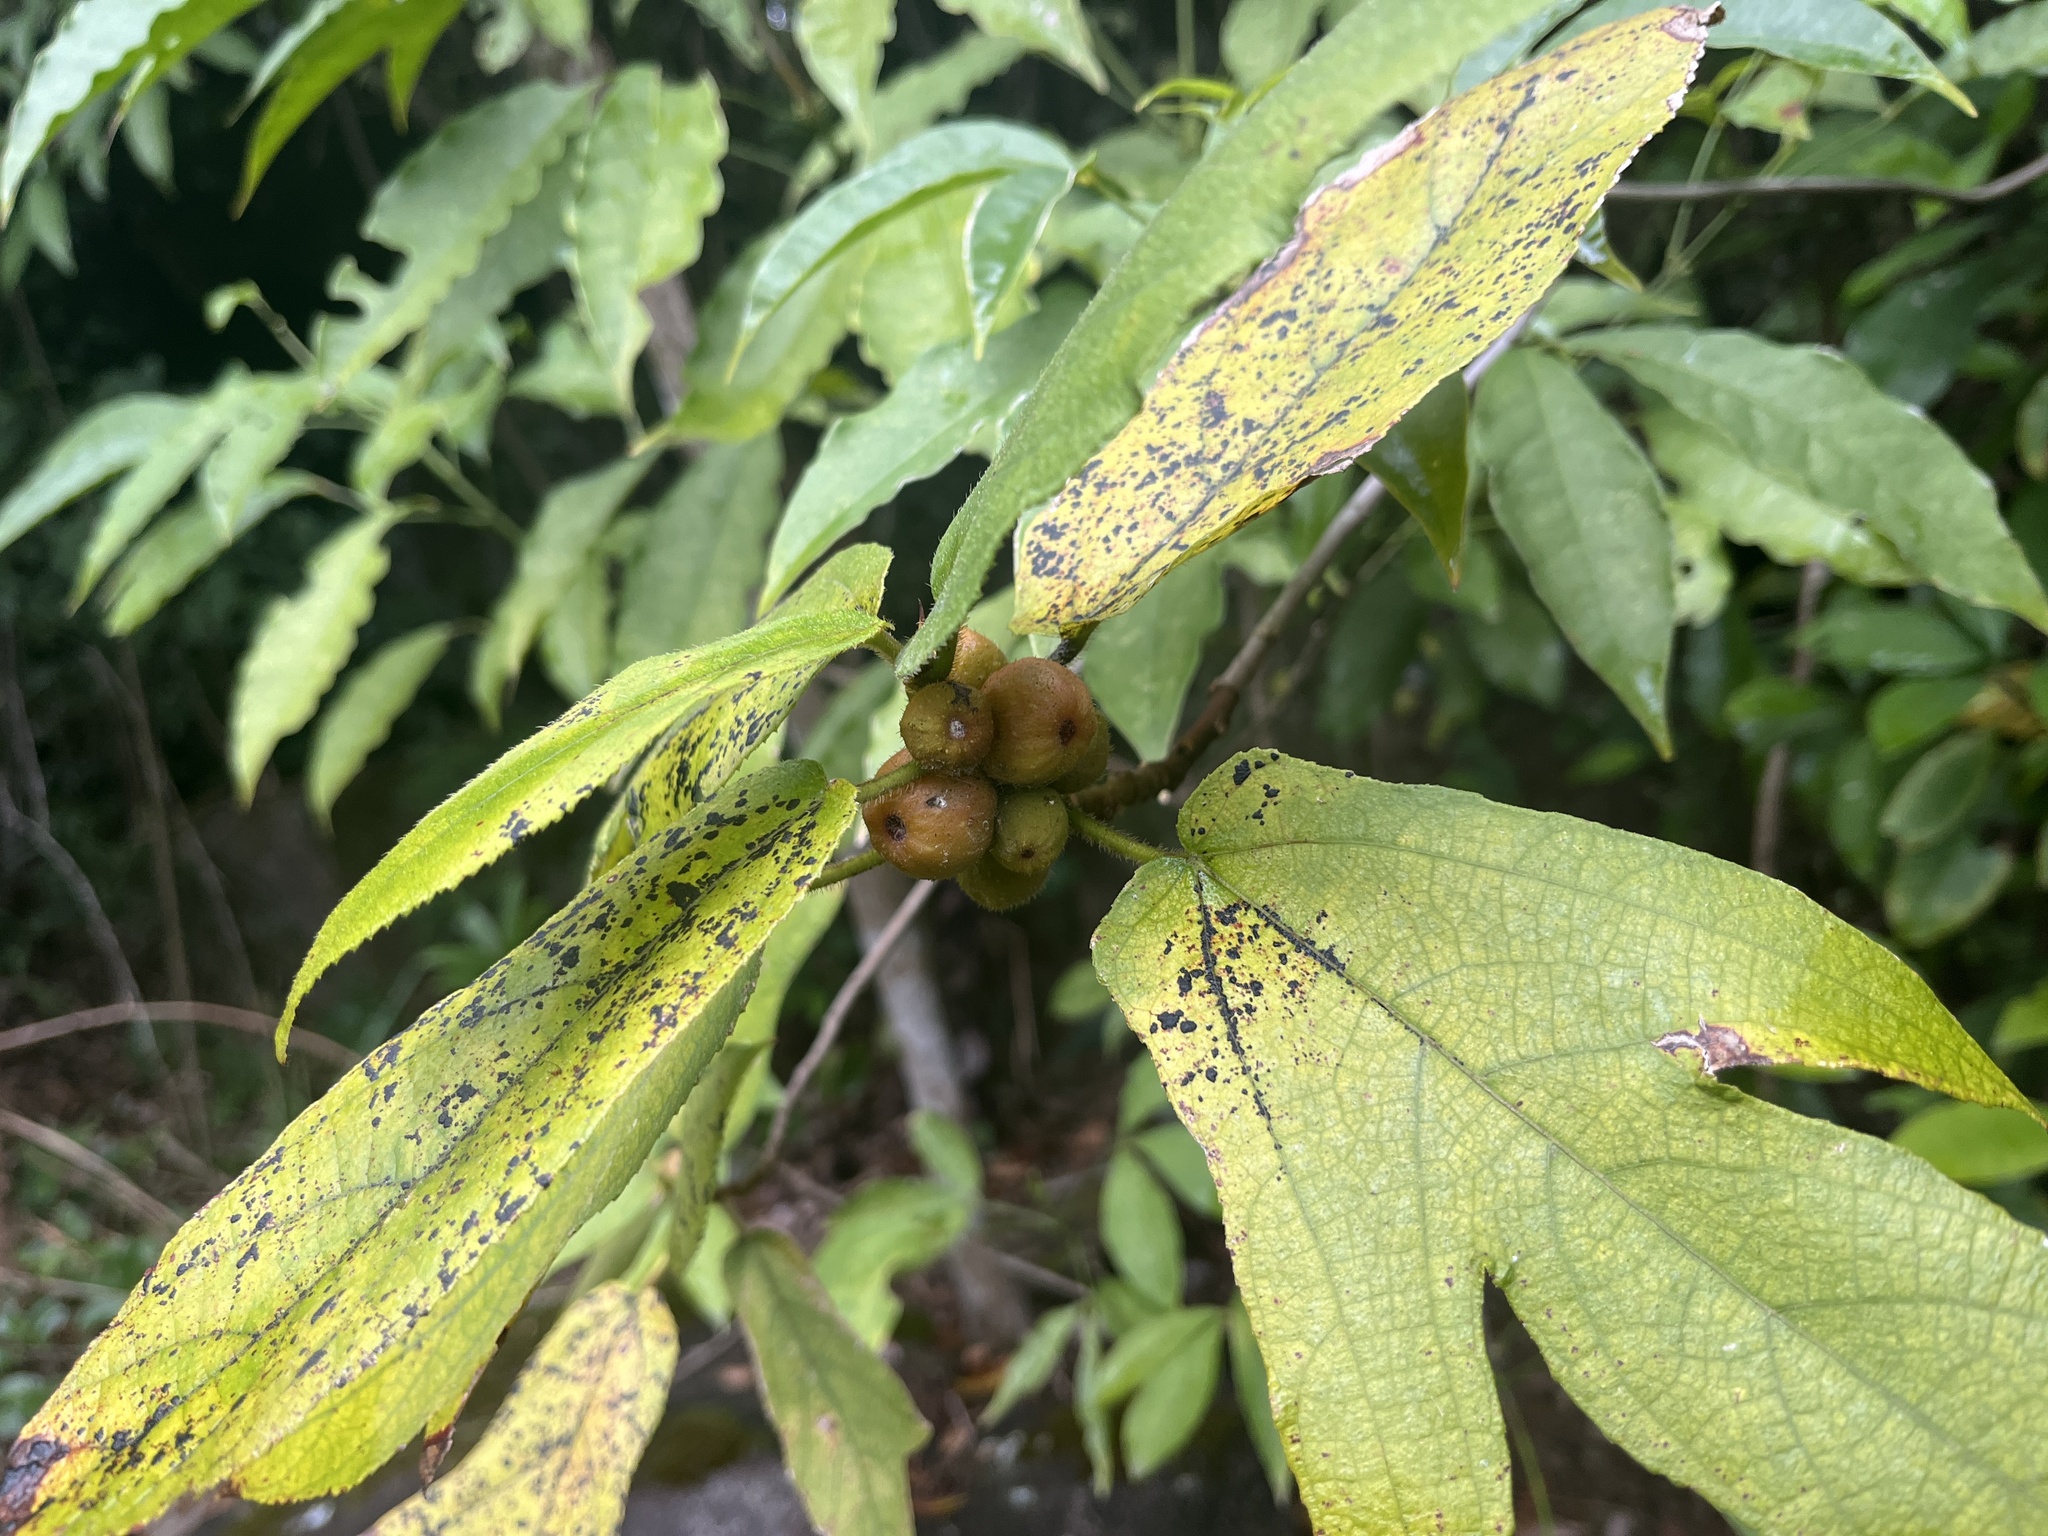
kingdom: Plantae
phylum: Tracheophyta
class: Magnoliopsida
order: Rosales
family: Moraceae
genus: Ficus
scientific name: Ficus simplicissima
